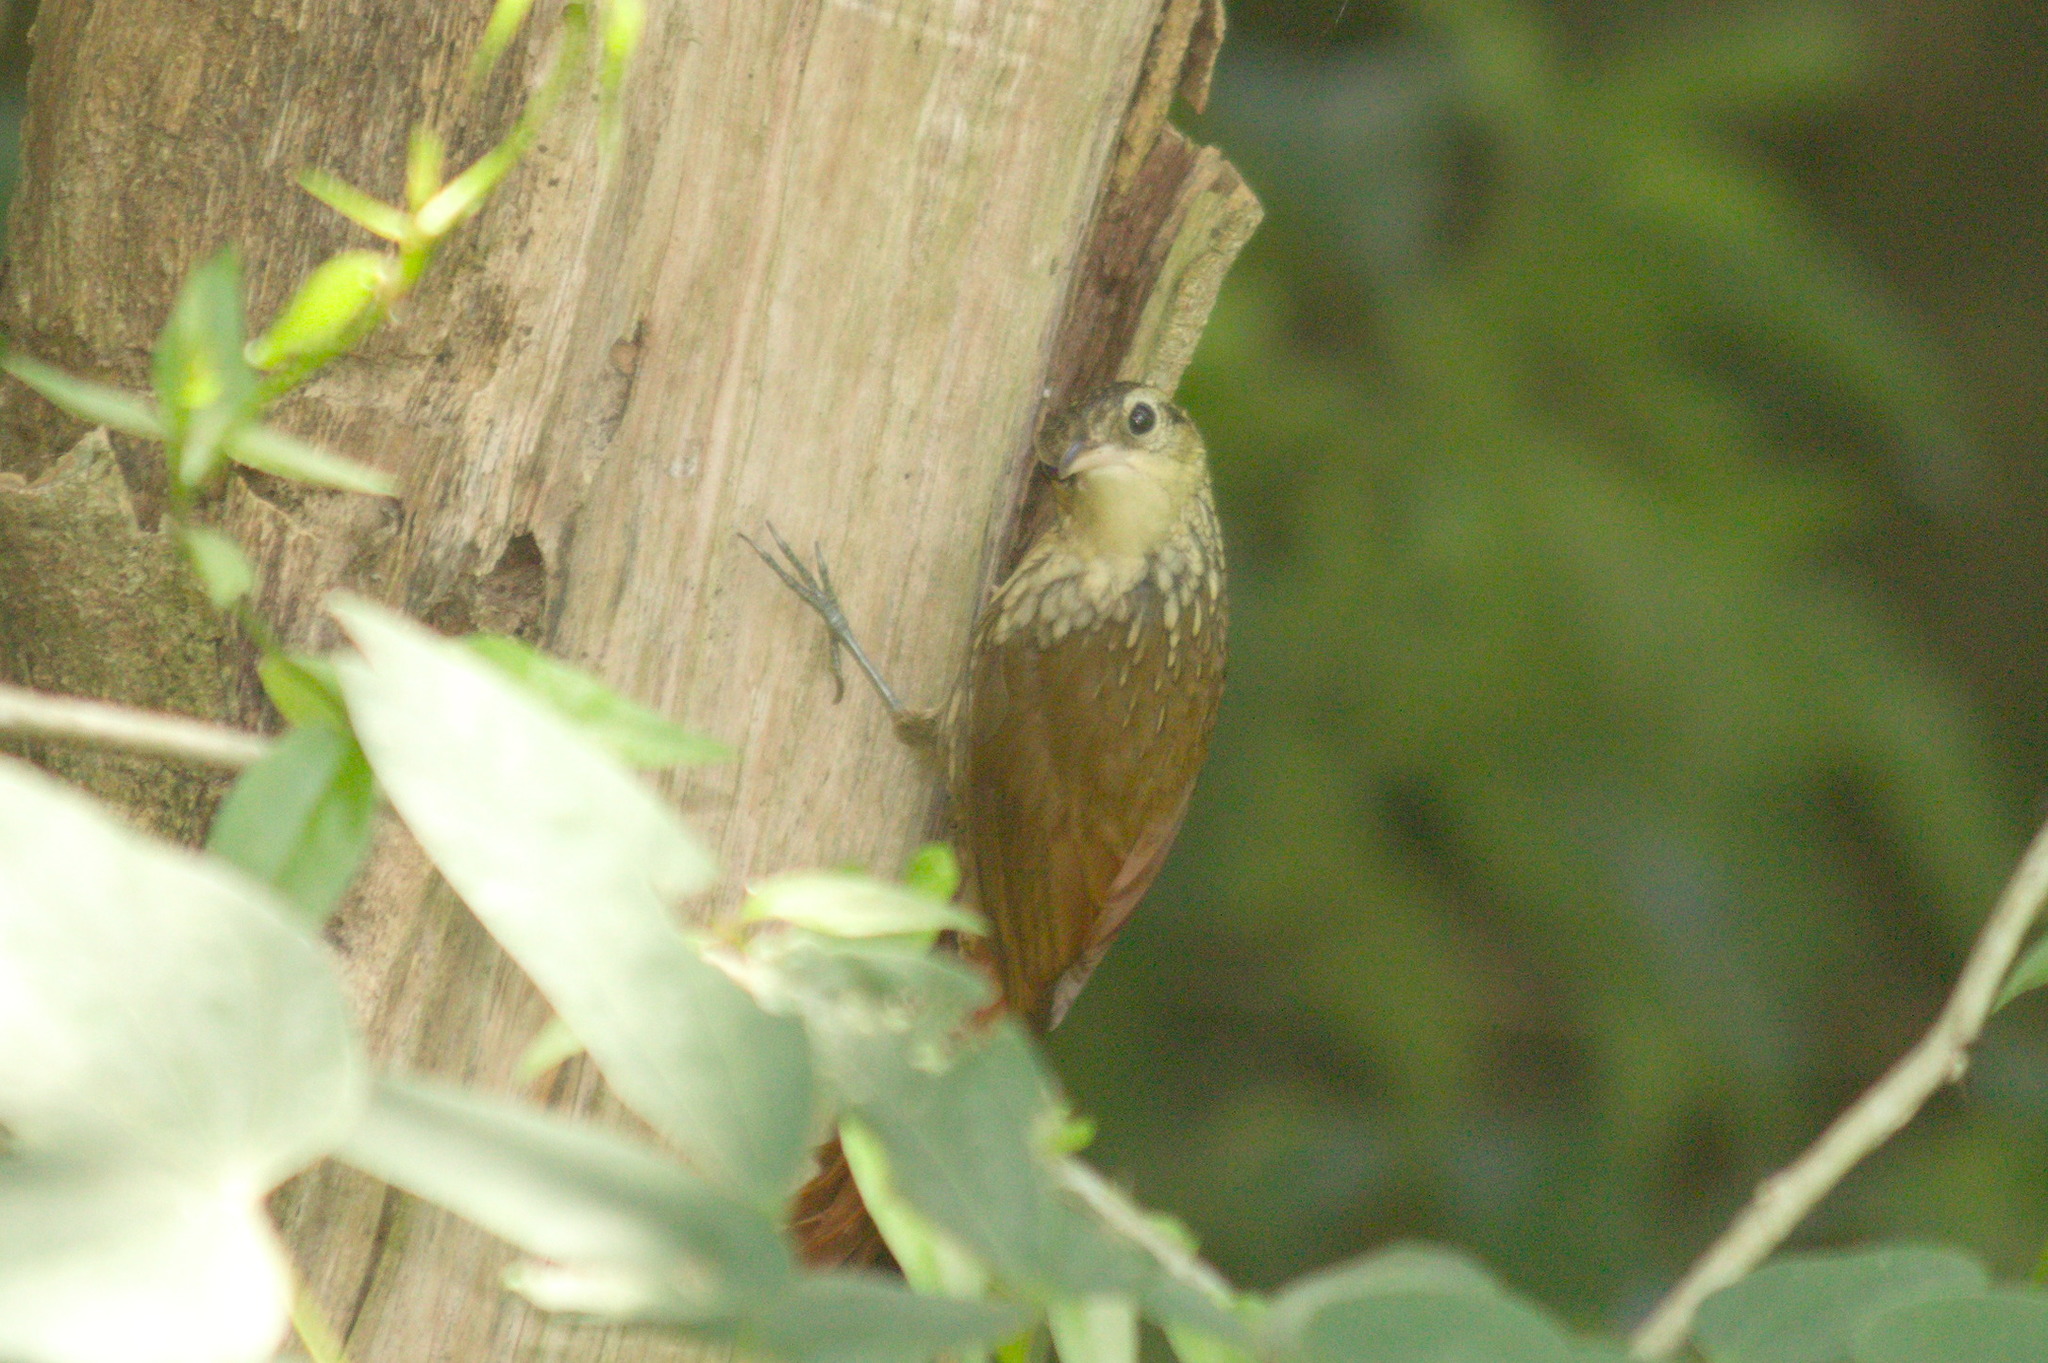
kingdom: Animalia
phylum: Chordata
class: Aves
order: Passeriformes
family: Furnariidae
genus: Xiphorhynchus
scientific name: Xiphorhynchus fuscus
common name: Lesser woodcreeper
